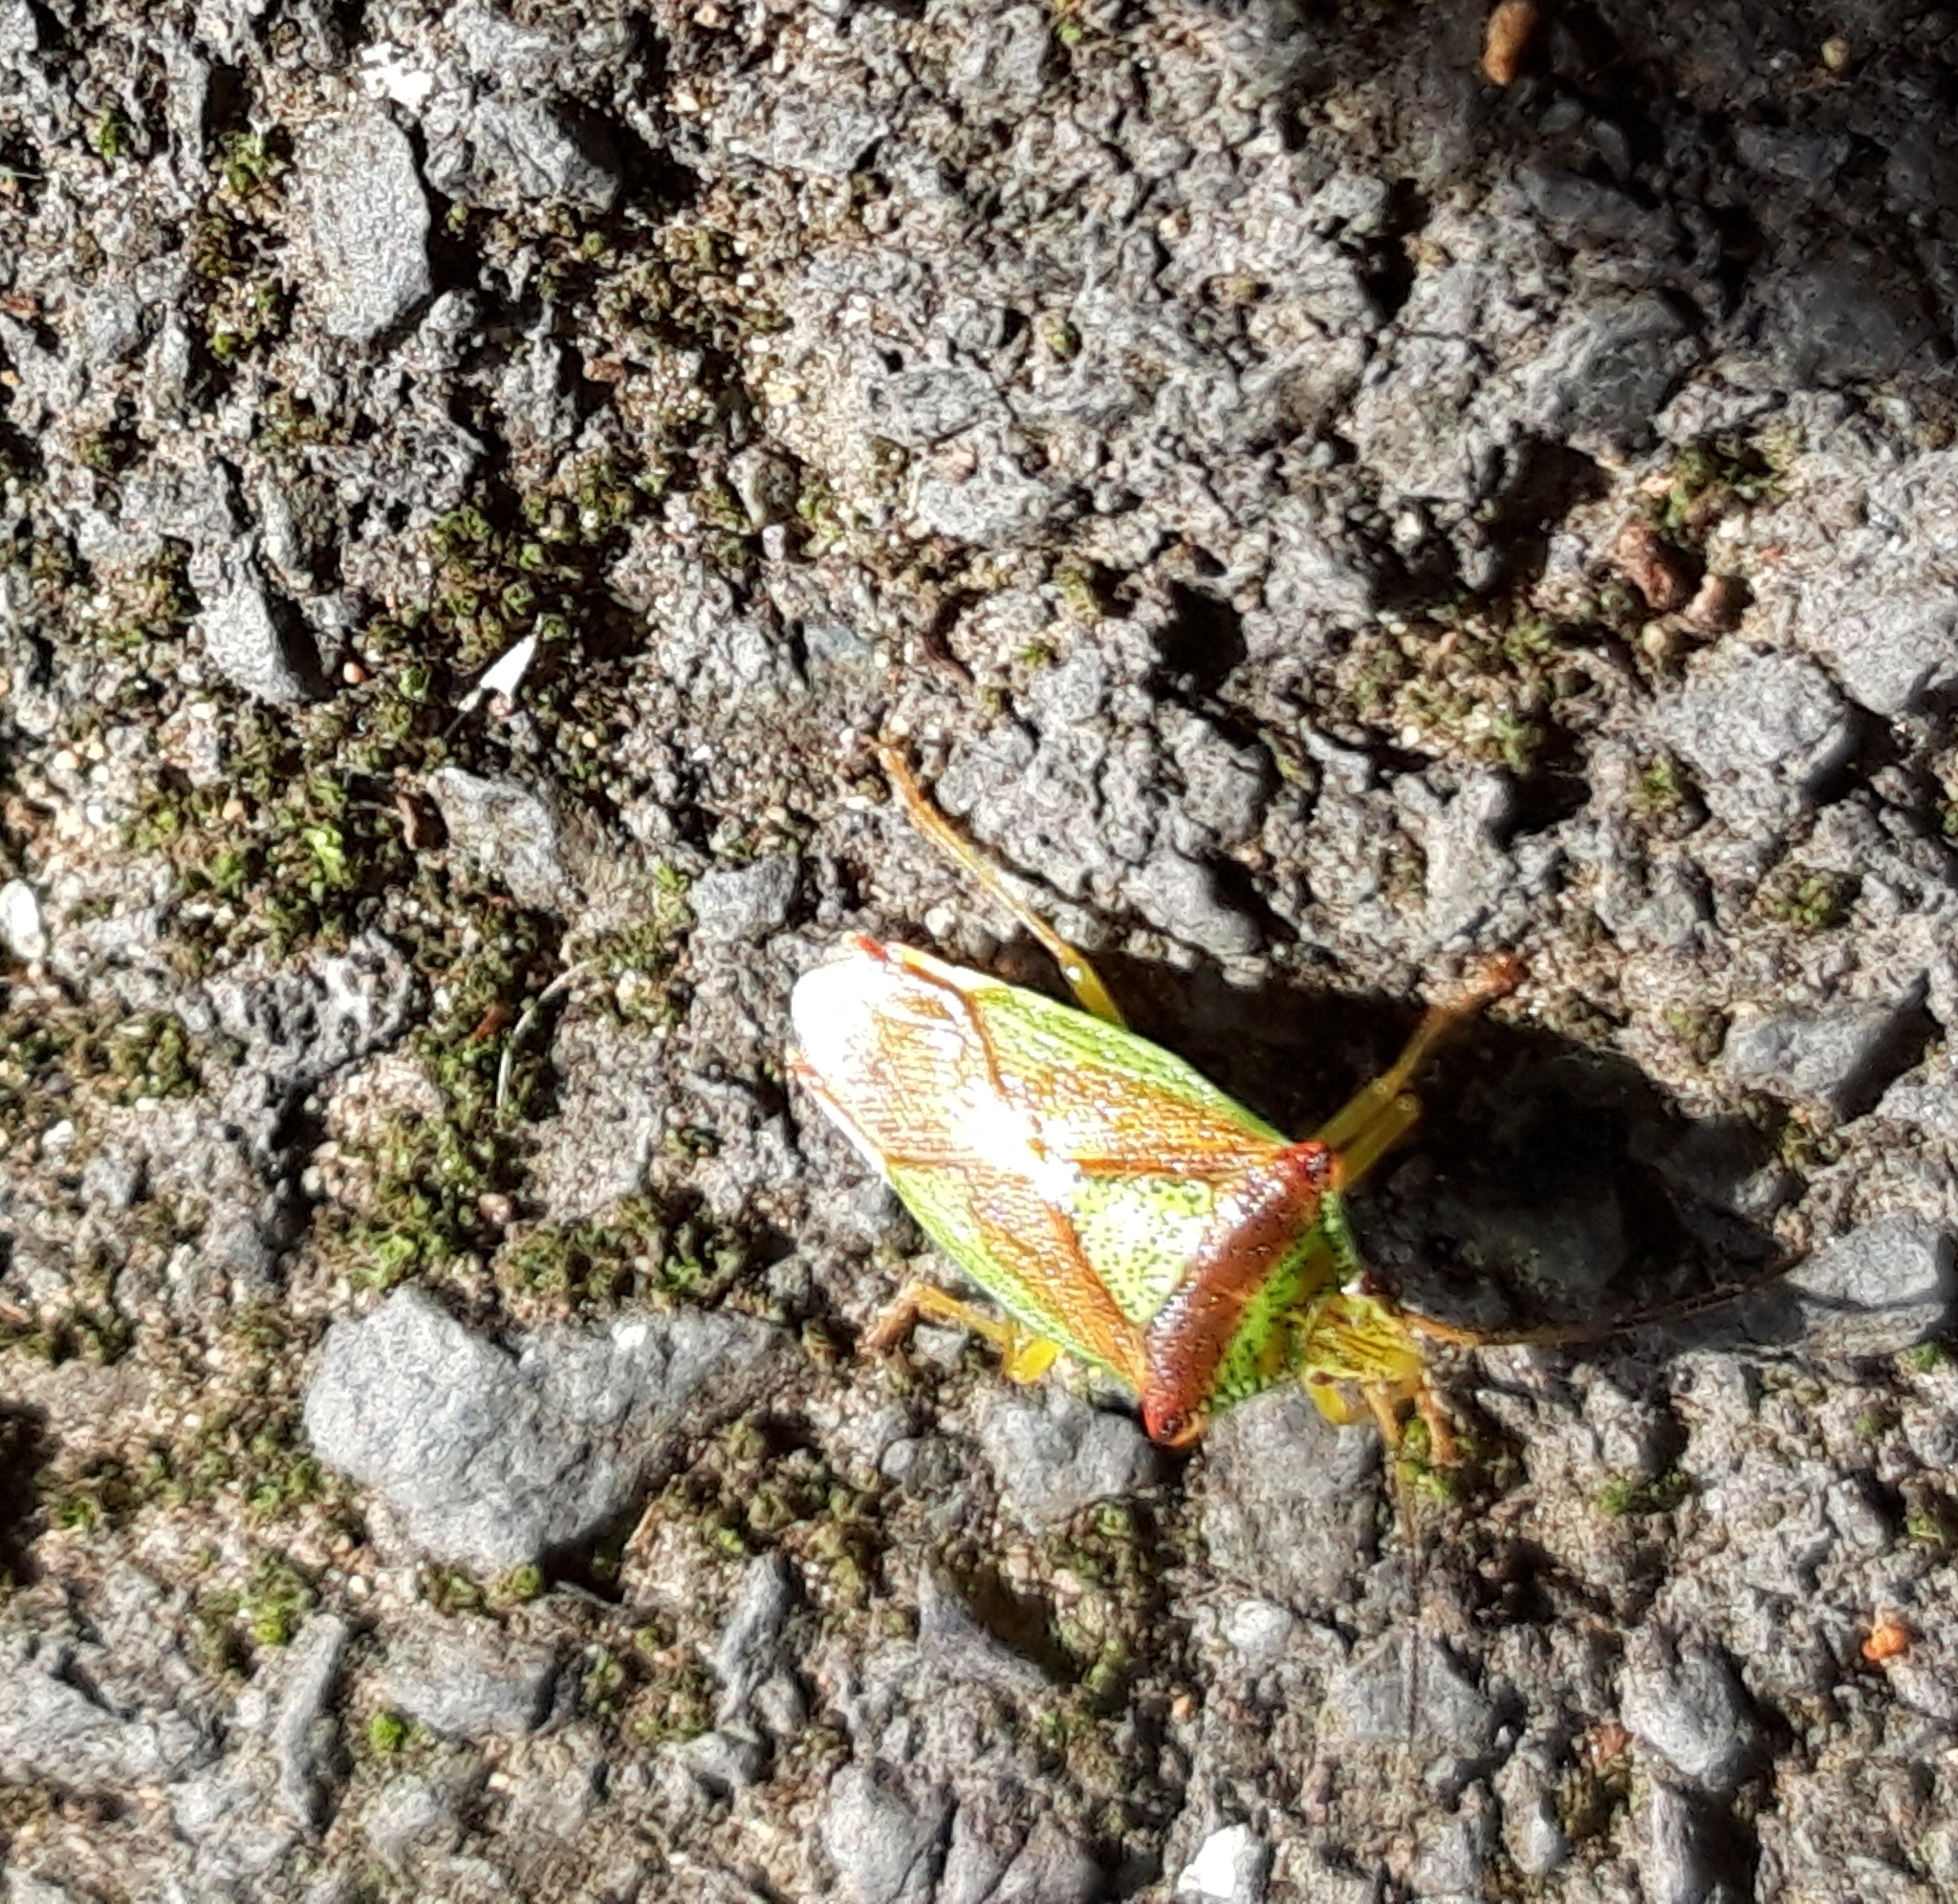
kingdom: Animalia
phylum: Arthropoda
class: Insecta
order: Hemiptera
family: Acanthosomatidae
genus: Acanthosoma
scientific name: Acanthosoma haemorrhoidale
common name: Hawthorn shieldbug
